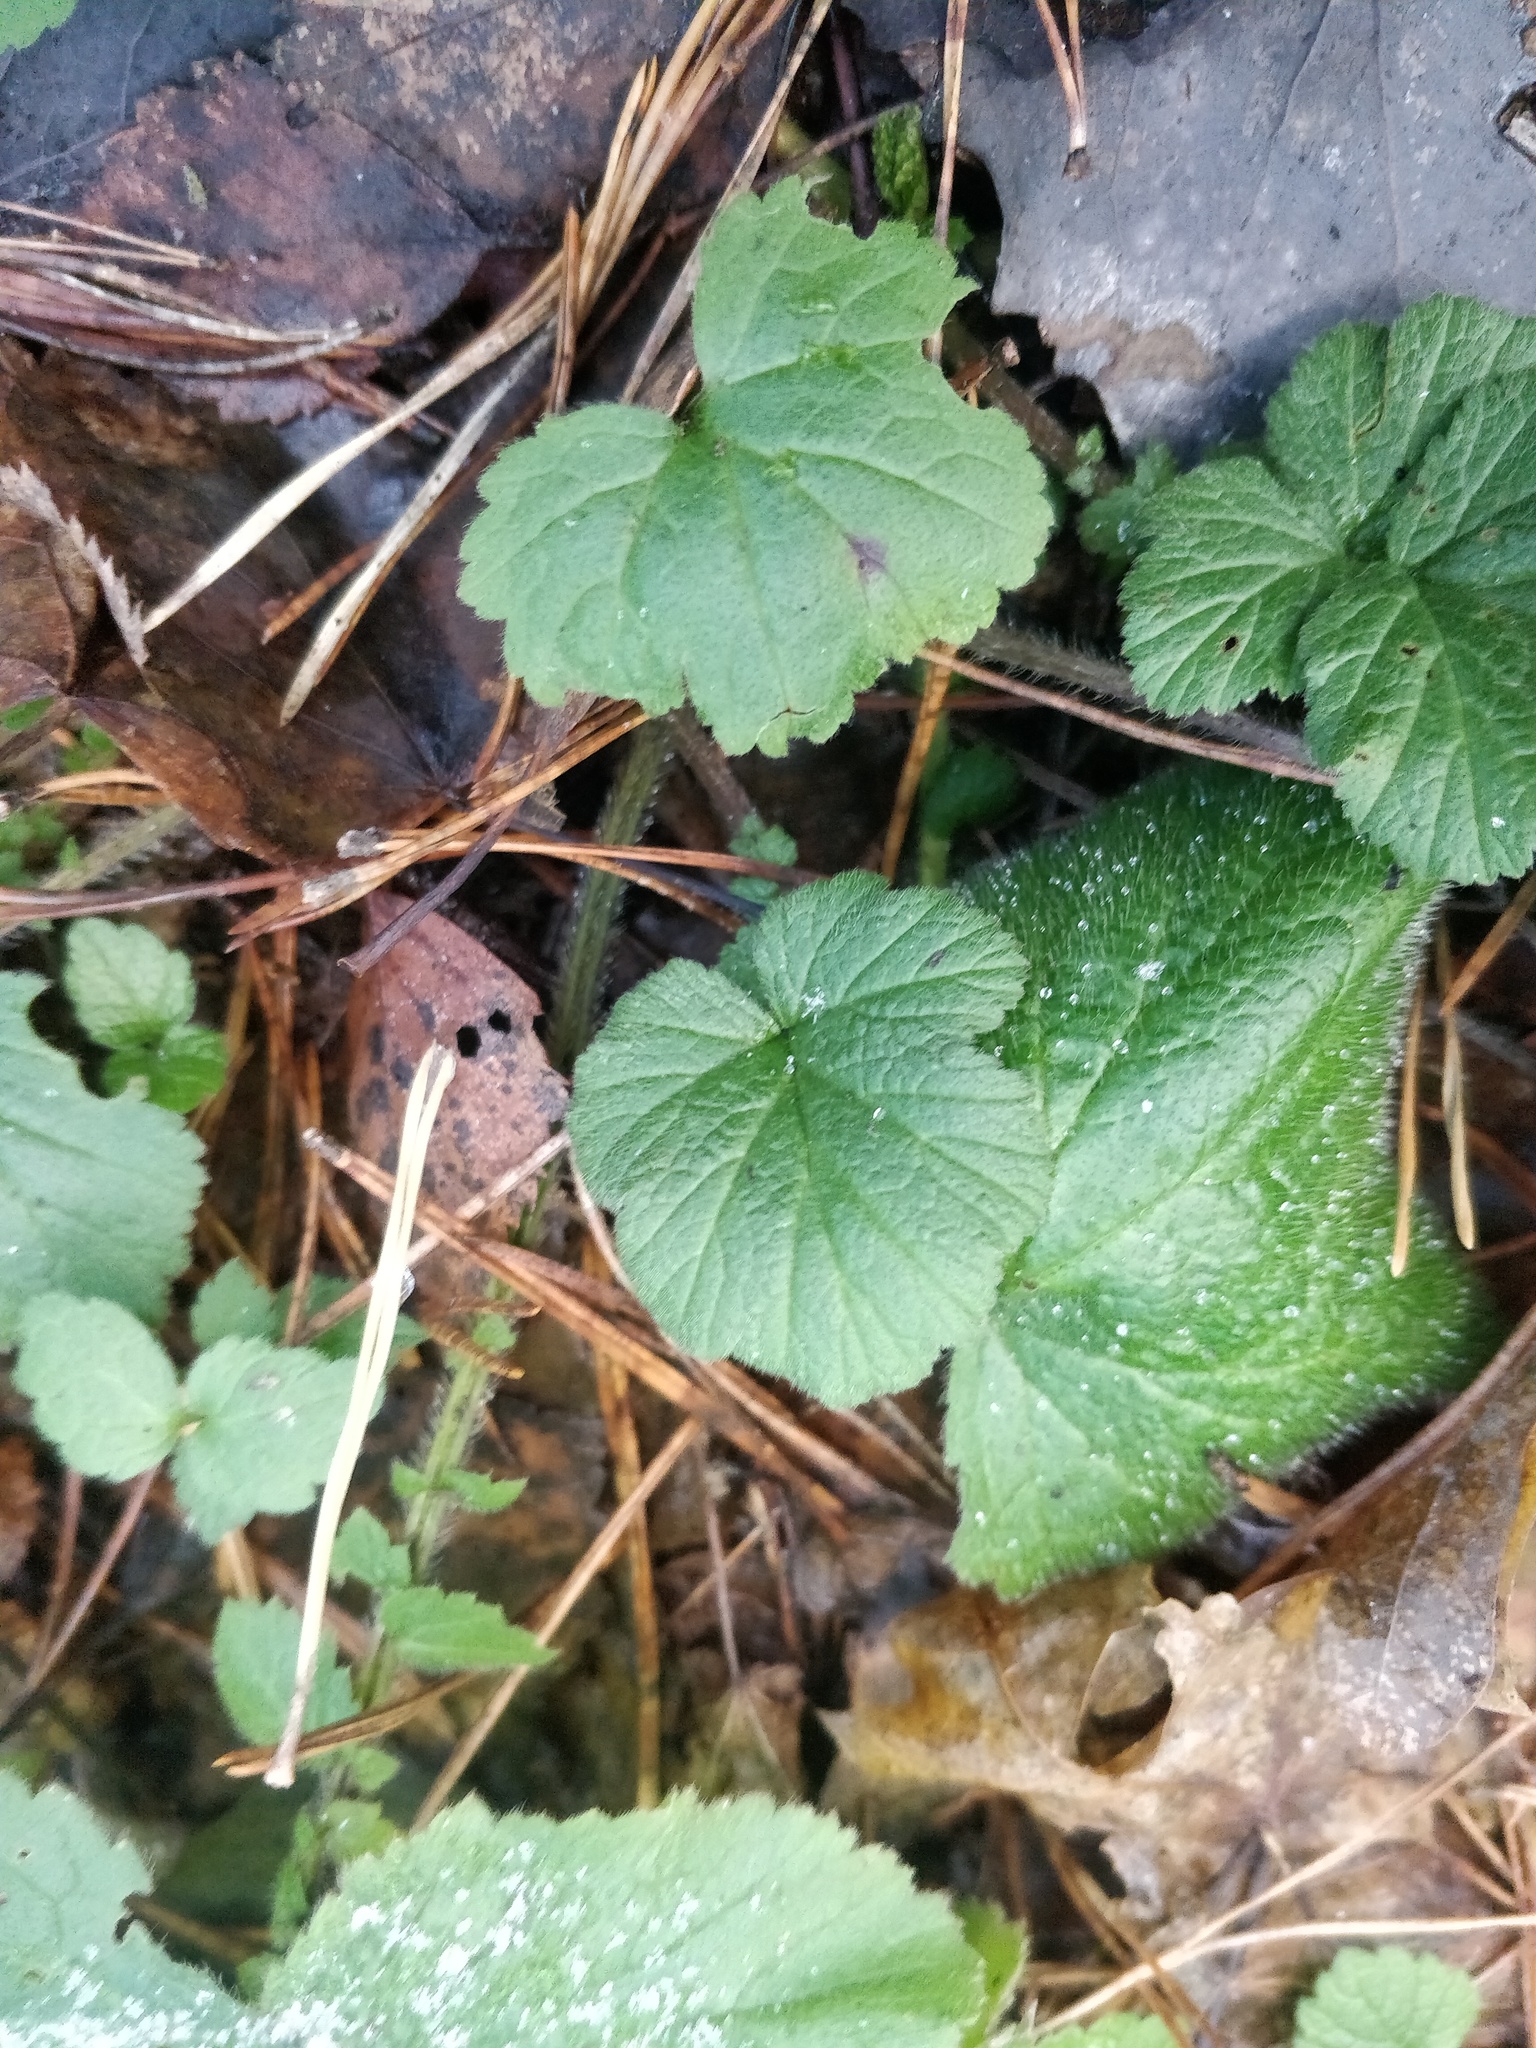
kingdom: Plantae
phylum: Tracheophyta
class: Magnoliopsida
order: Rosales
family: Rosaceae
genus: Geum
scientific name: Geum
